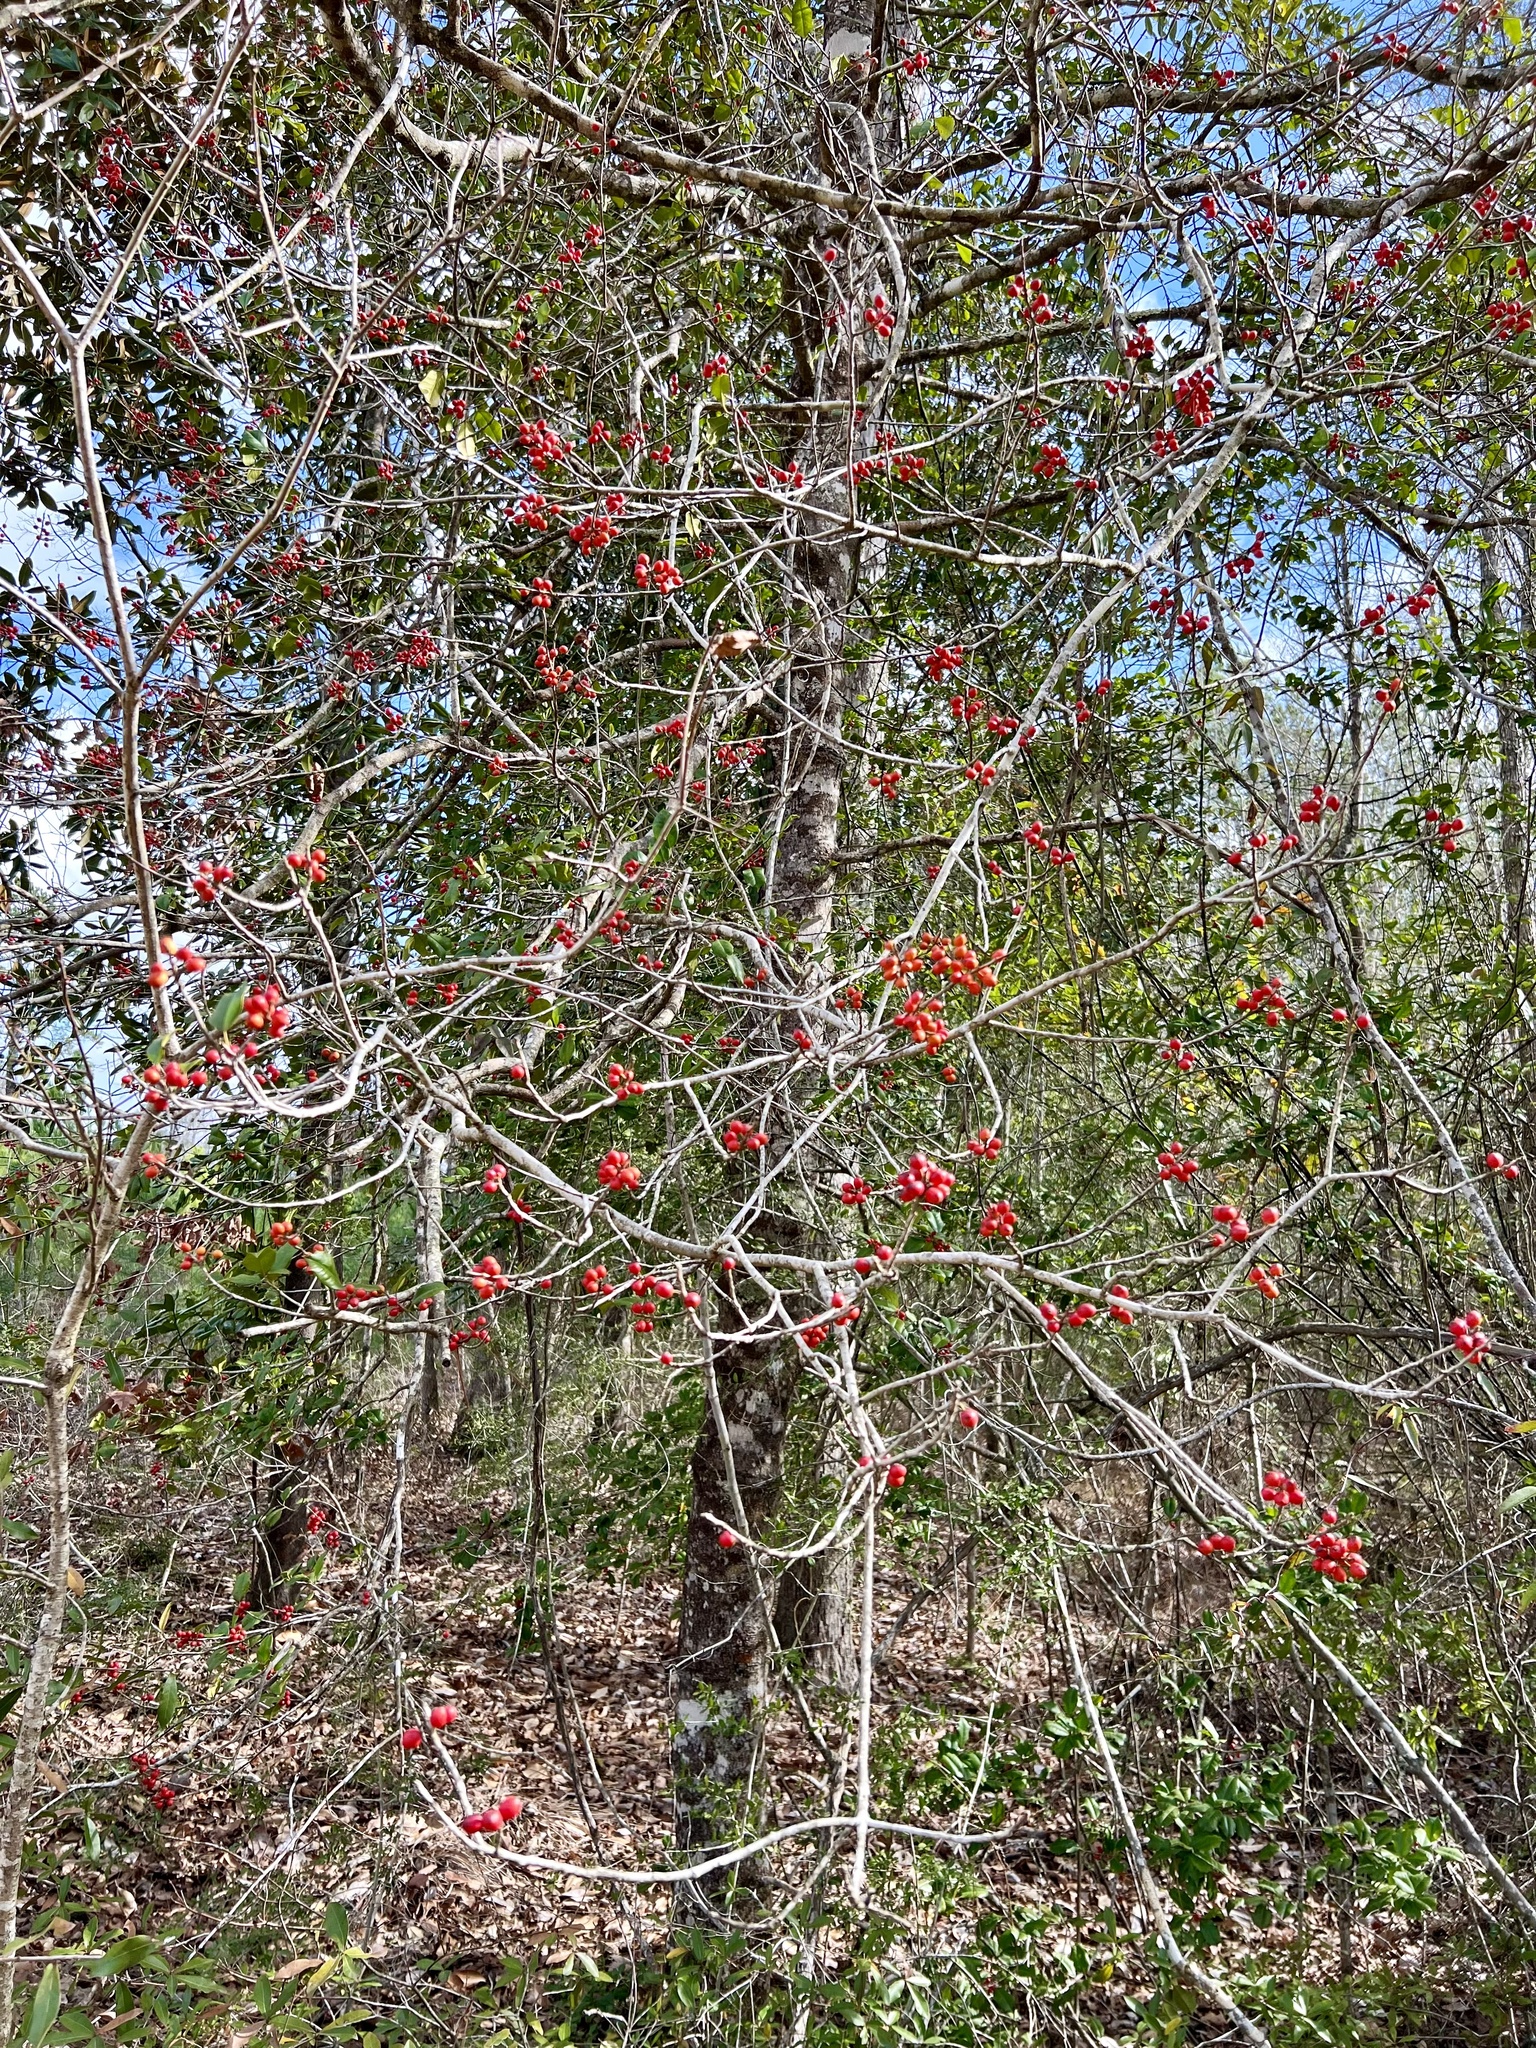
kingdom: Plantae
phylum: Tracheophyta
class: Magnoliopsida
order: Aquifoliales
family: Aquifoliaceae
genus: Ilex
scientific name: Ilex opaca
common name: American holly
